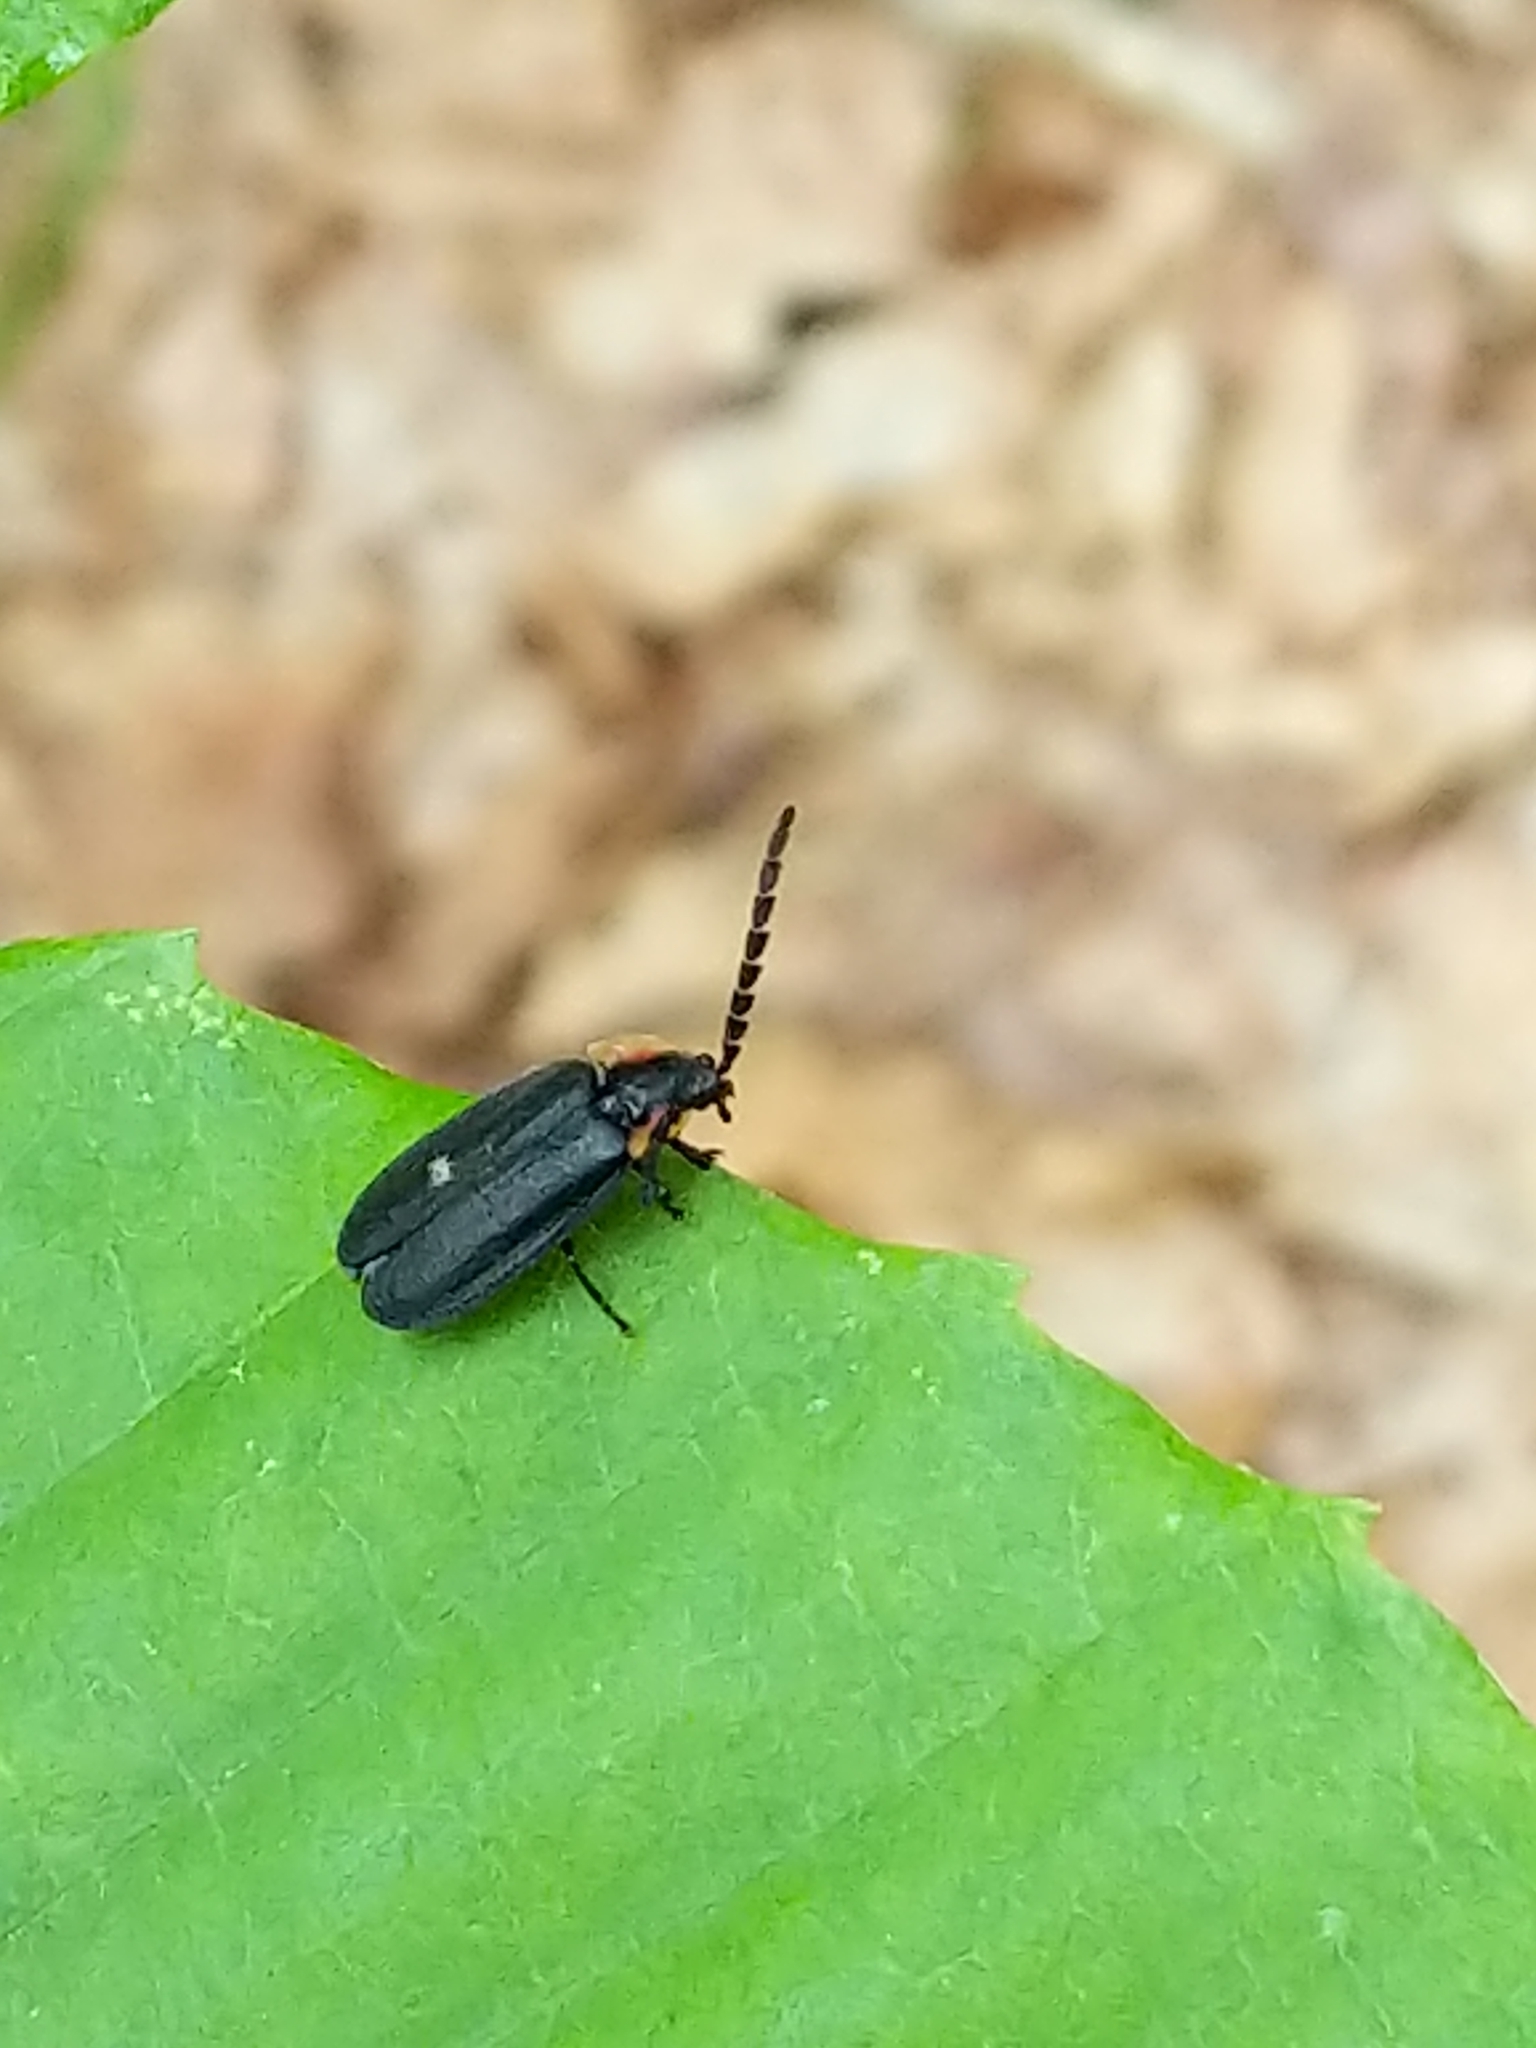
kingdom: Animalia
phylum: Arthropoda
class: Insecta
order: Coleoptera
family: Lampyridae
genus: Lucidota
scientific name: Lucidota atra
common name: Black firefly
